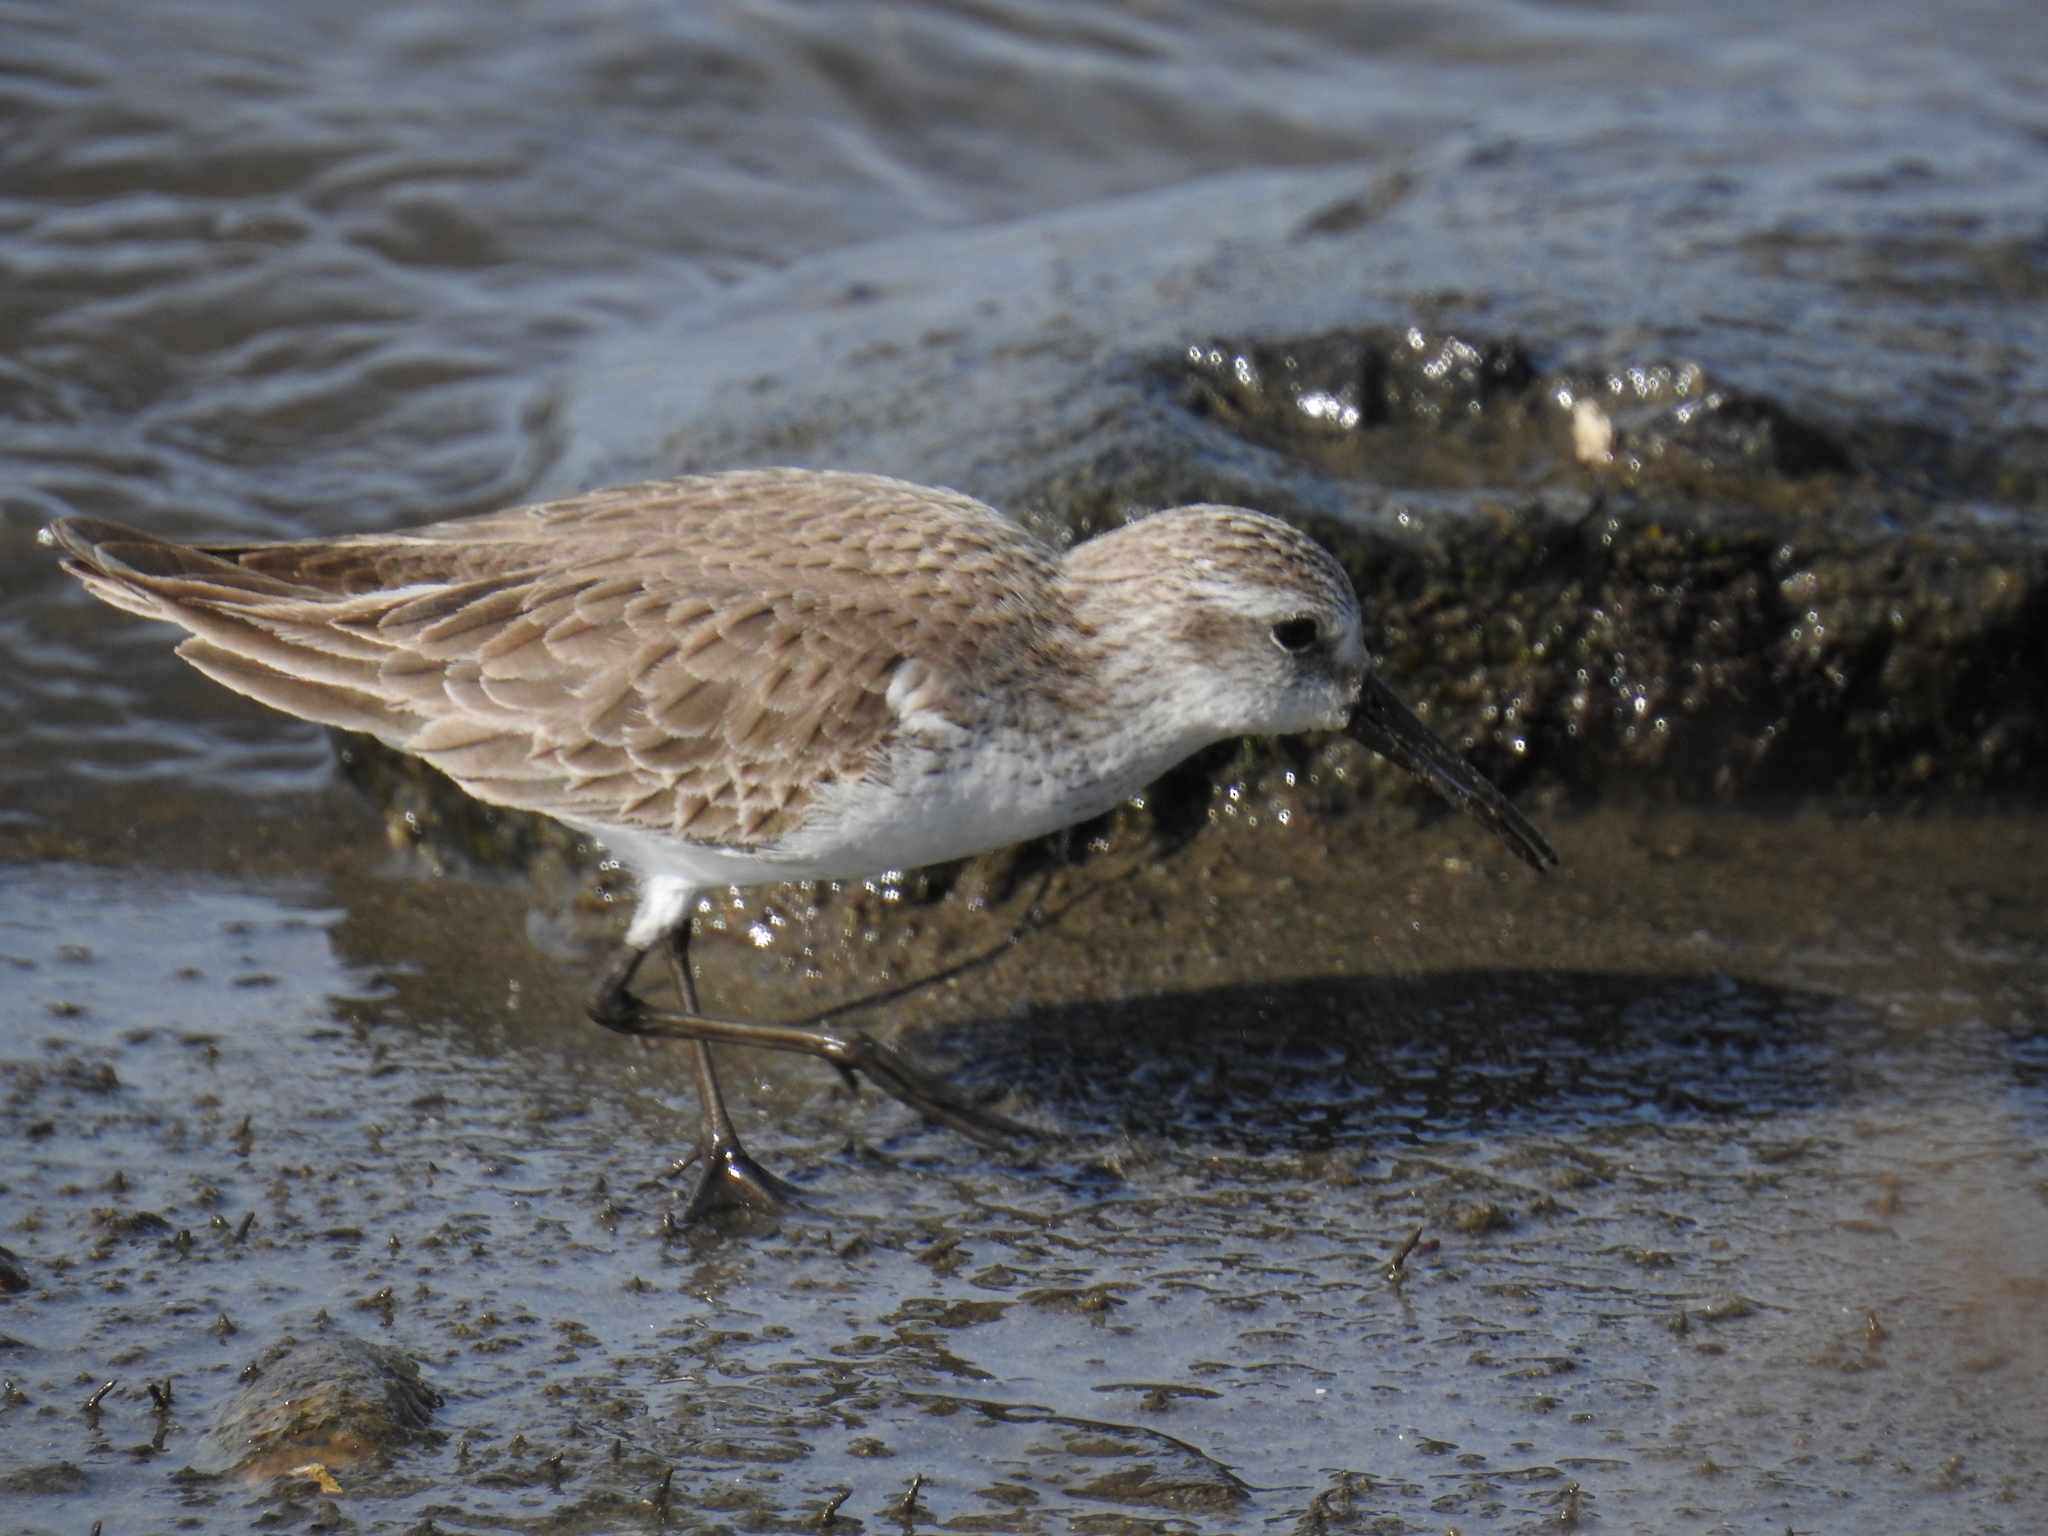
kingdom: Animalia
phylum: Chordata
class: Aves
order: Charadriiformes
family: Scolopacidae
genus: Calidris
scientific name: Calidris mauri
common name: Western sandpiper
